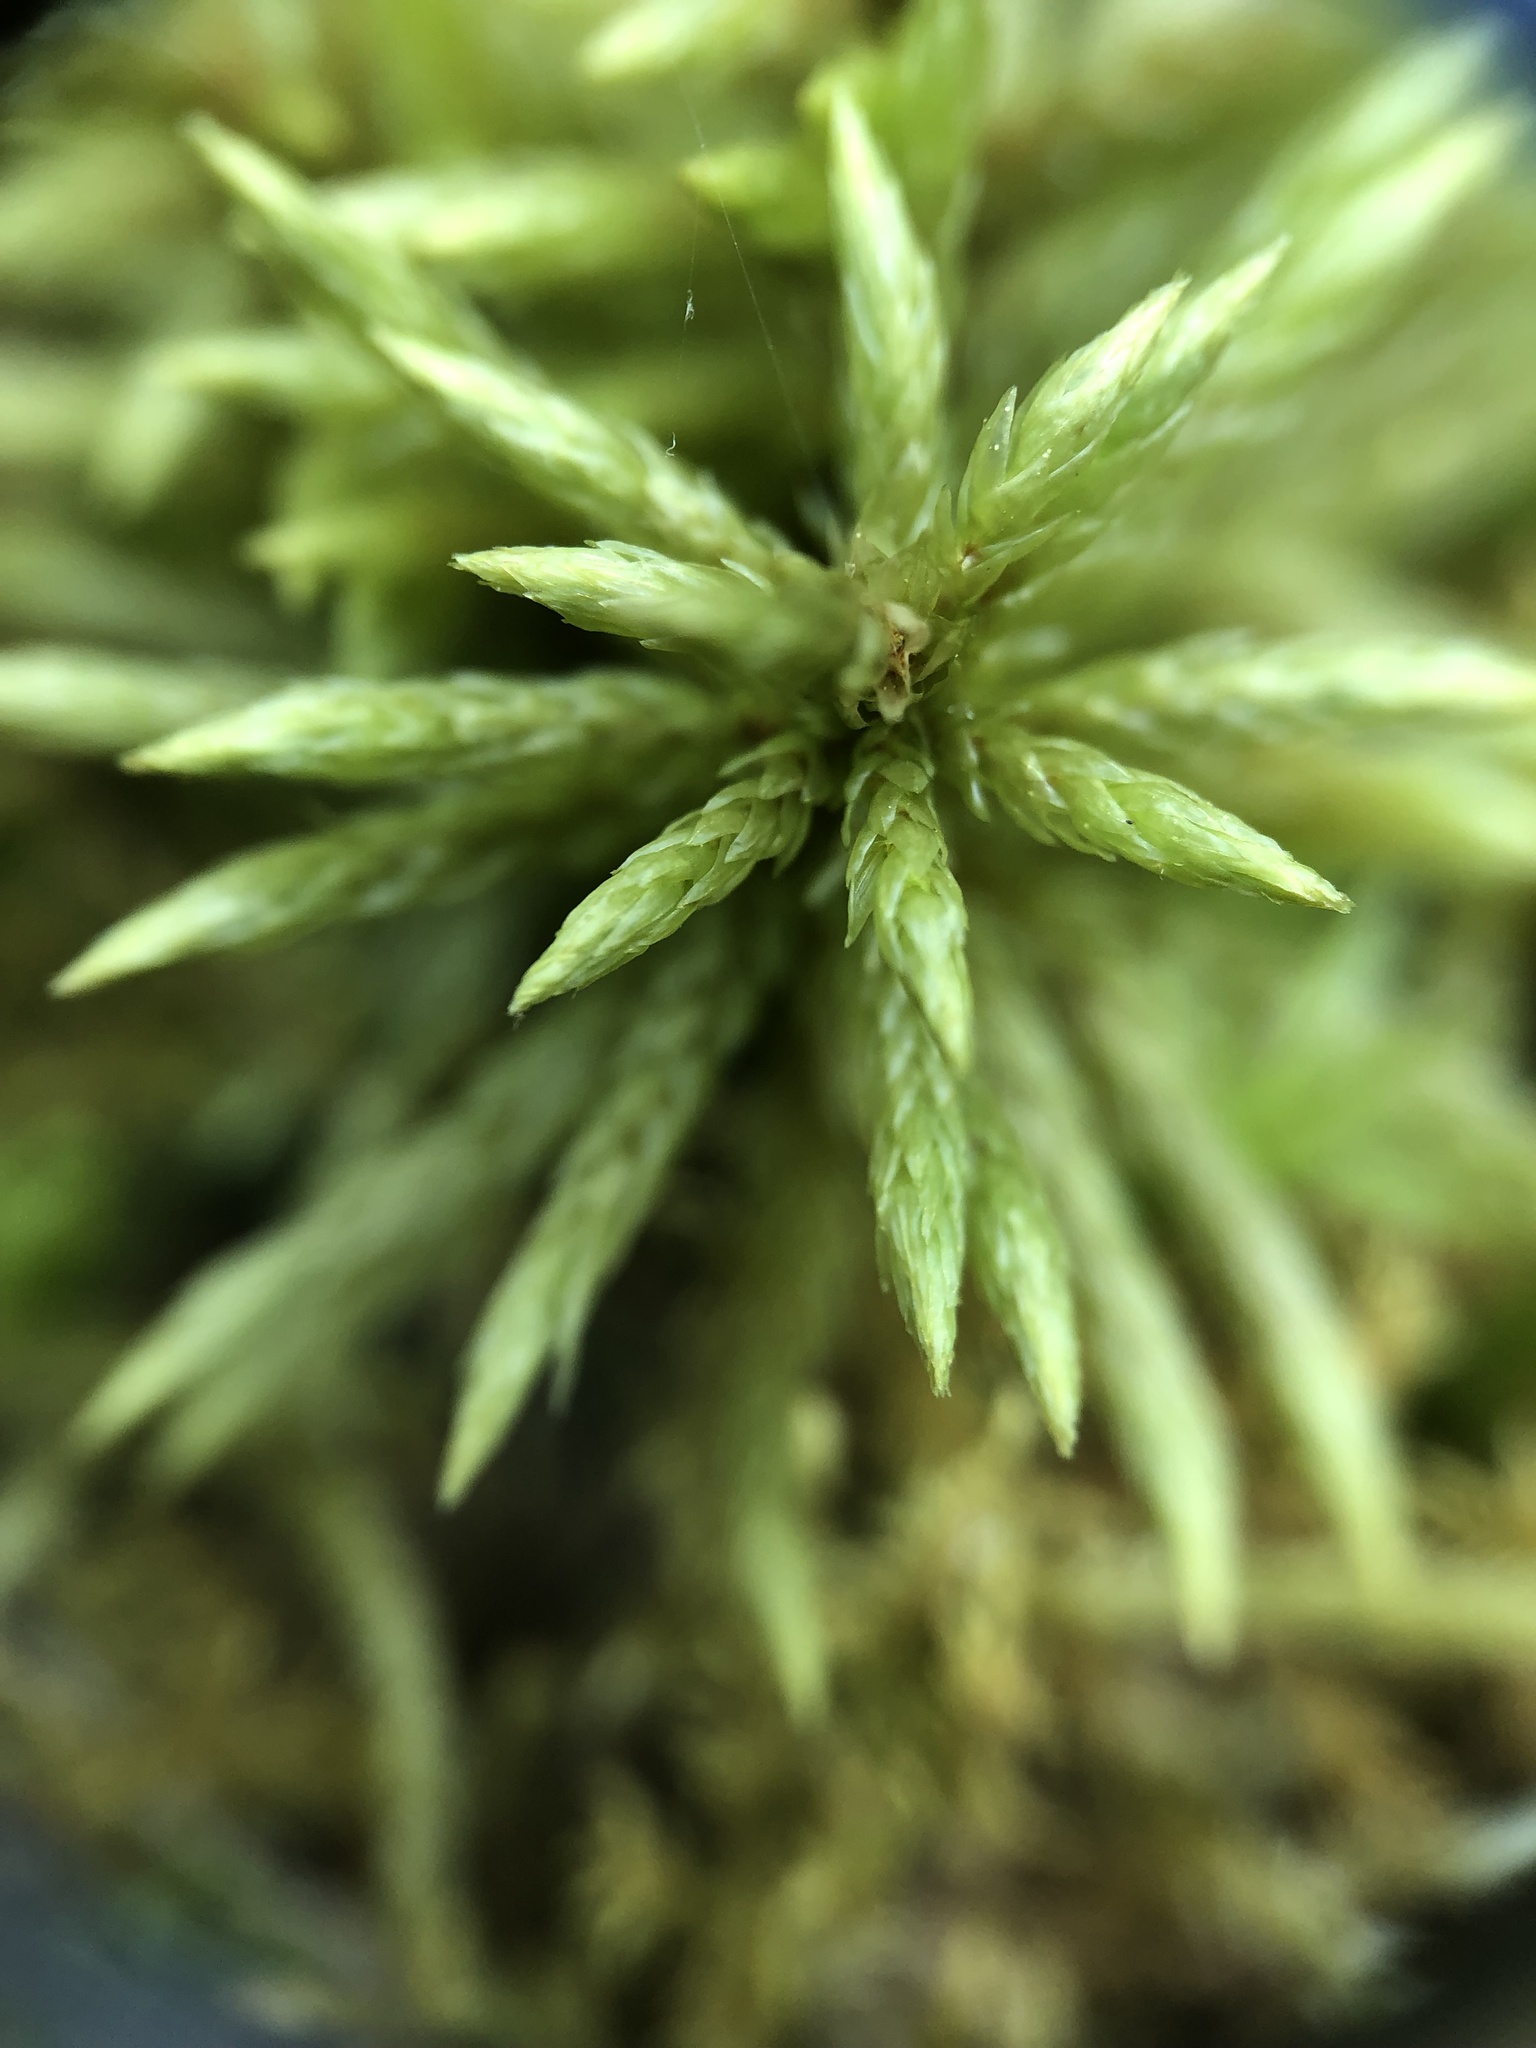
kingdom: Plantae
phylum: Bryophyta
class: Bryopsida
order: Hypnales
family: Climaciaceae
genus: Climacium
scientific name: Climacium americanum
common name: American tree moss
